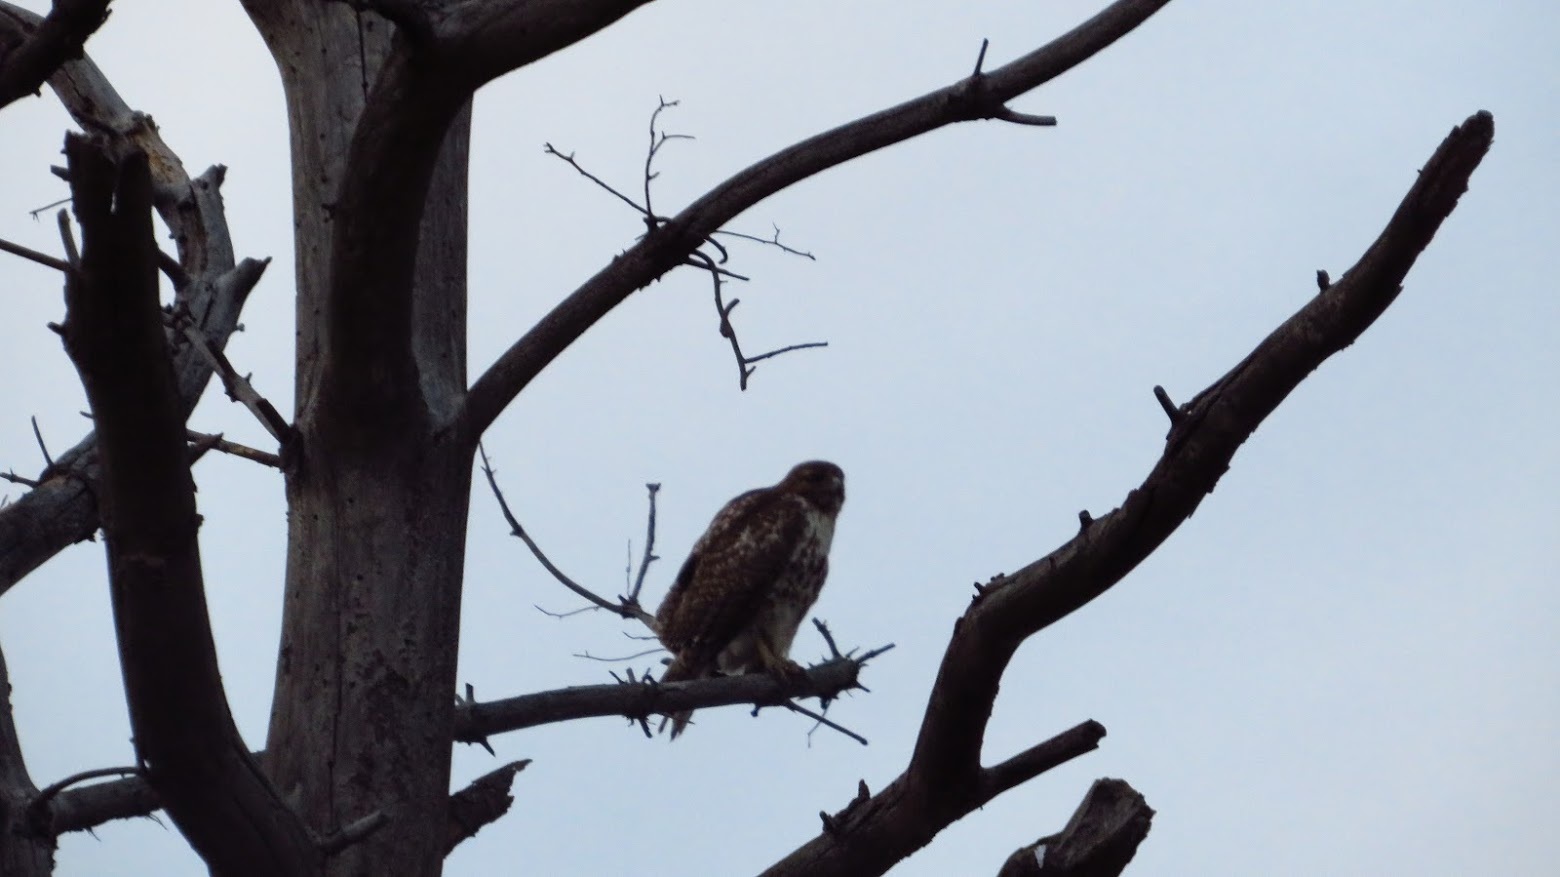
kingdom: Animalia
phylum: Chordata
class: Aves
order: Accipitriformes
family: Accipitridae
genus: Buteo
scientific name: Buteo jamaicensis
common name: Red-tailed hawk
